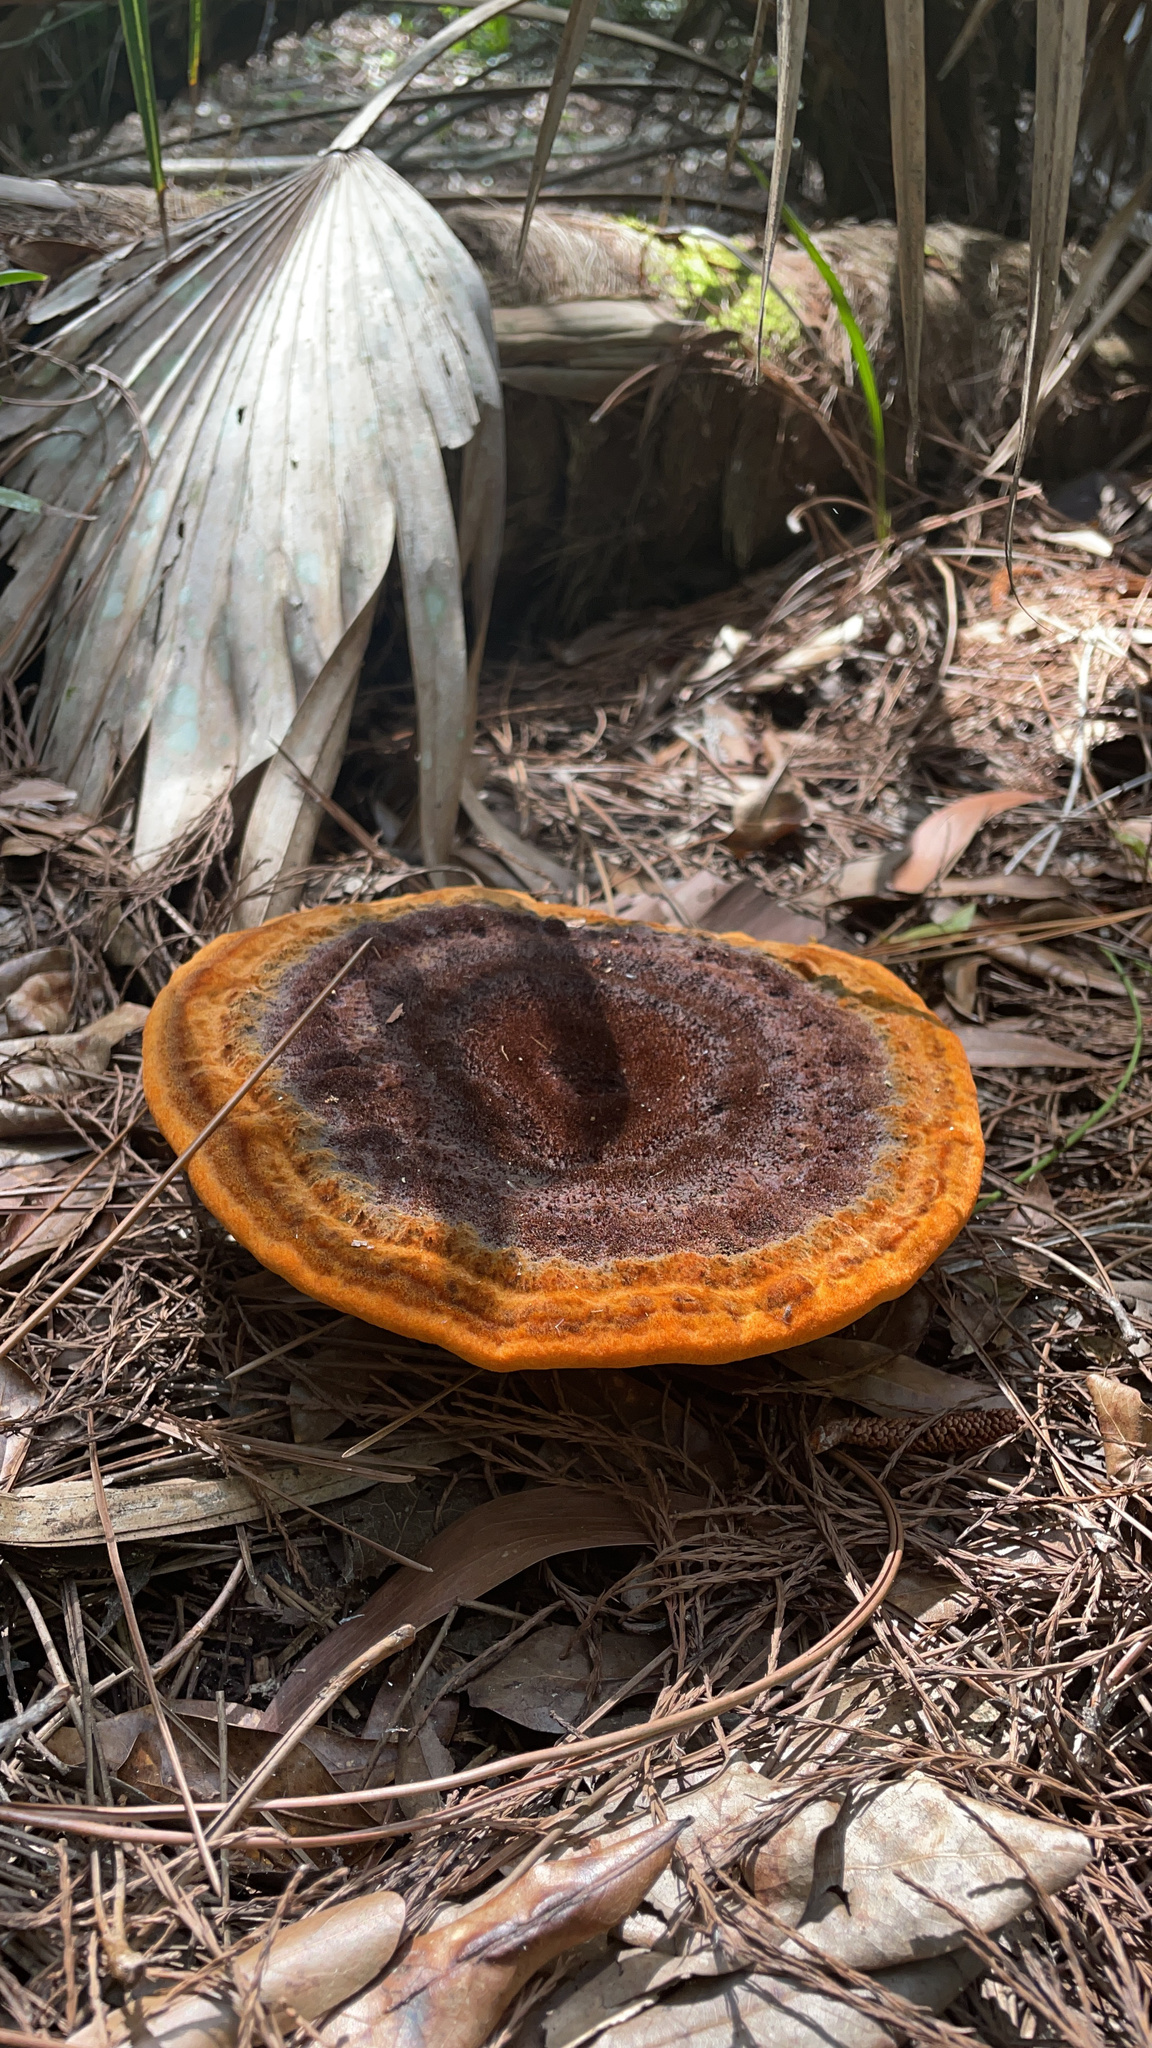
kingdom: Fungi
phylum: Basidiomycota
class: Agaricomycetes
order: Polyporales
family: Laetiporaceae
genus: Phaeolus
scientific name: Phaeolus schweinitzii
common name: Dyer's mazegill
